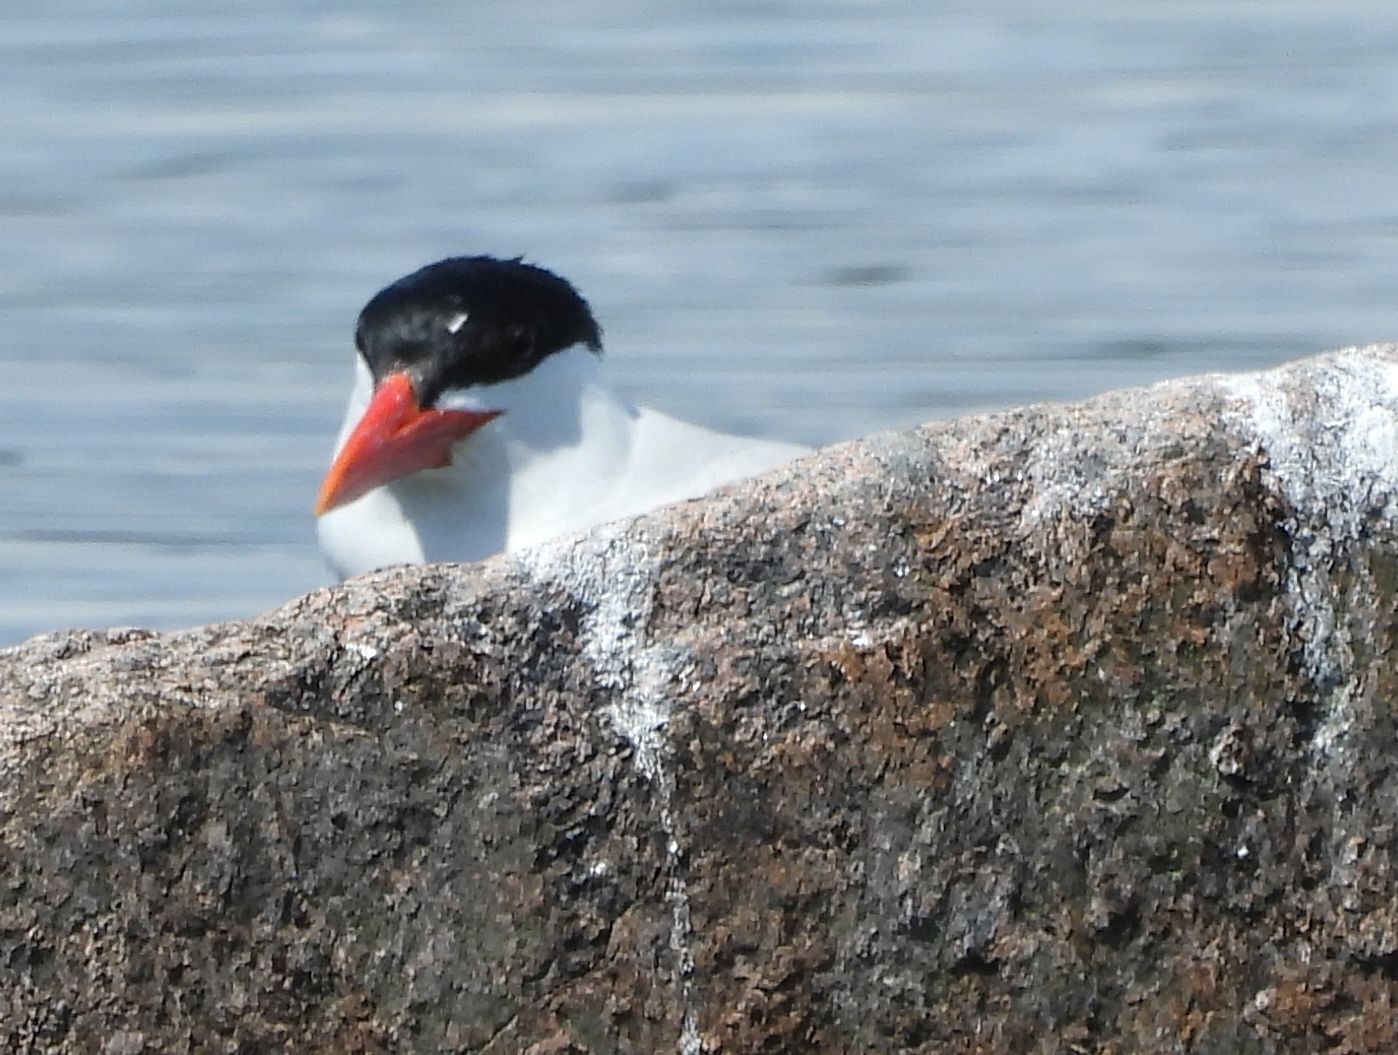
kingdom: Animalia
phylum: Chordata
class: Aves
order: Charadriiformes
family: Laridae
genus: Hydroprogne
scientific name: Hydroprogne caspia
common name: Caspian tern
